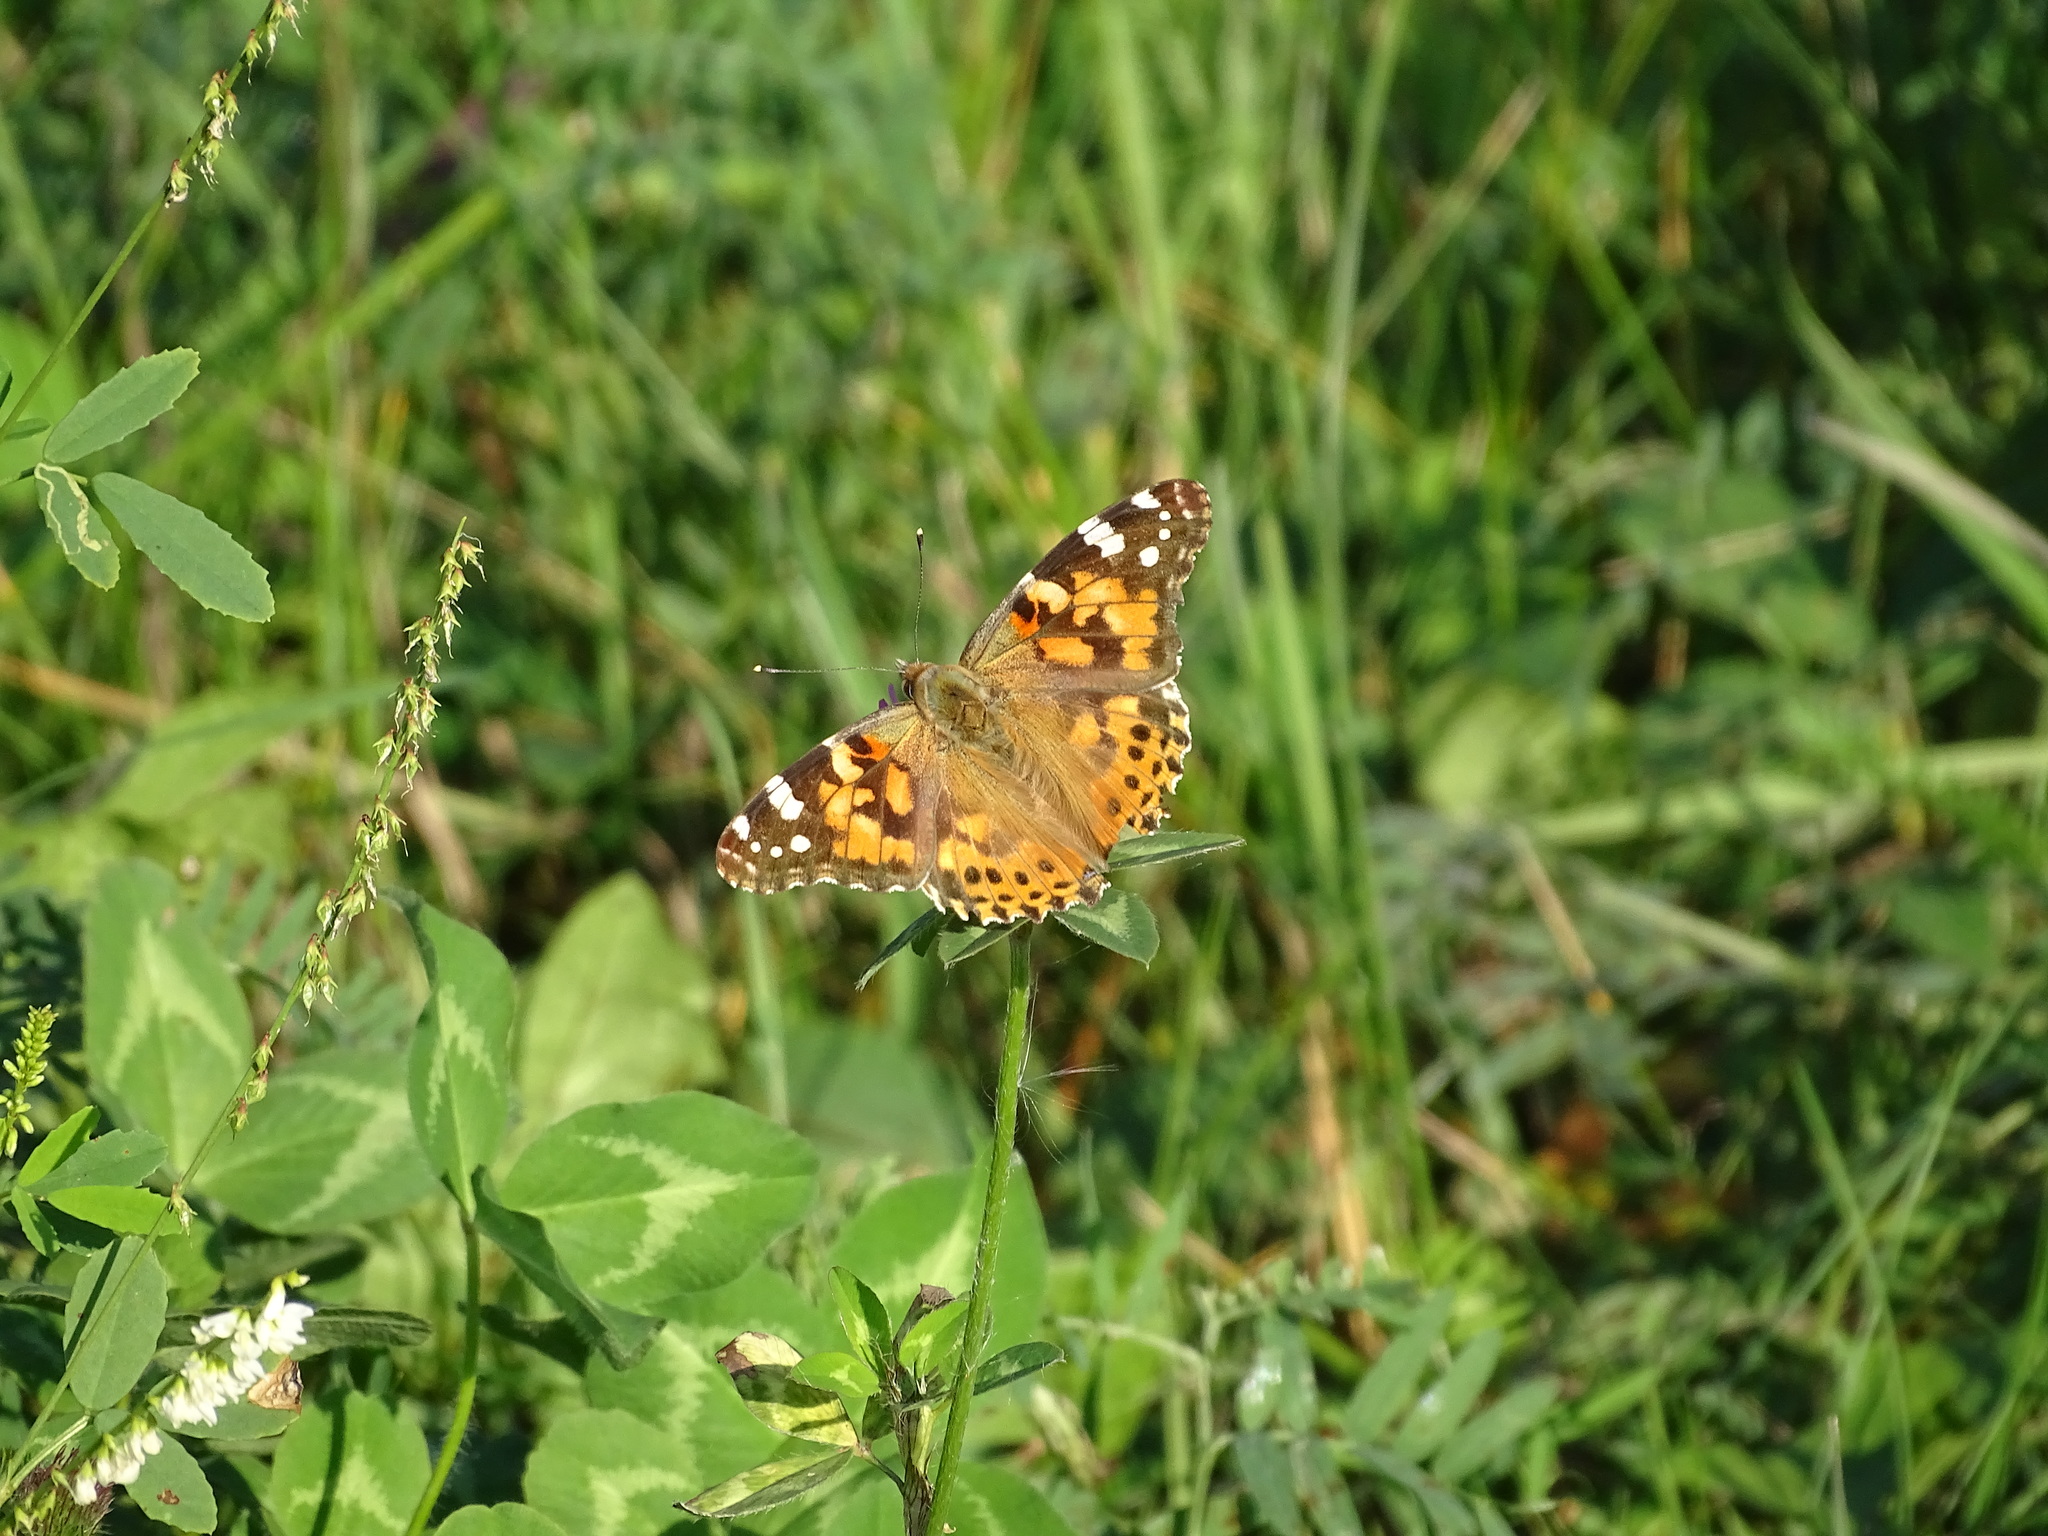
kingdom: Animalia
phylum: Arthropoda
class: Insecta
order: Lepidoptera
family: Nymphalidae
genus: Vanessa
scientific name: Vanessa cardui
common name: Painted lady
